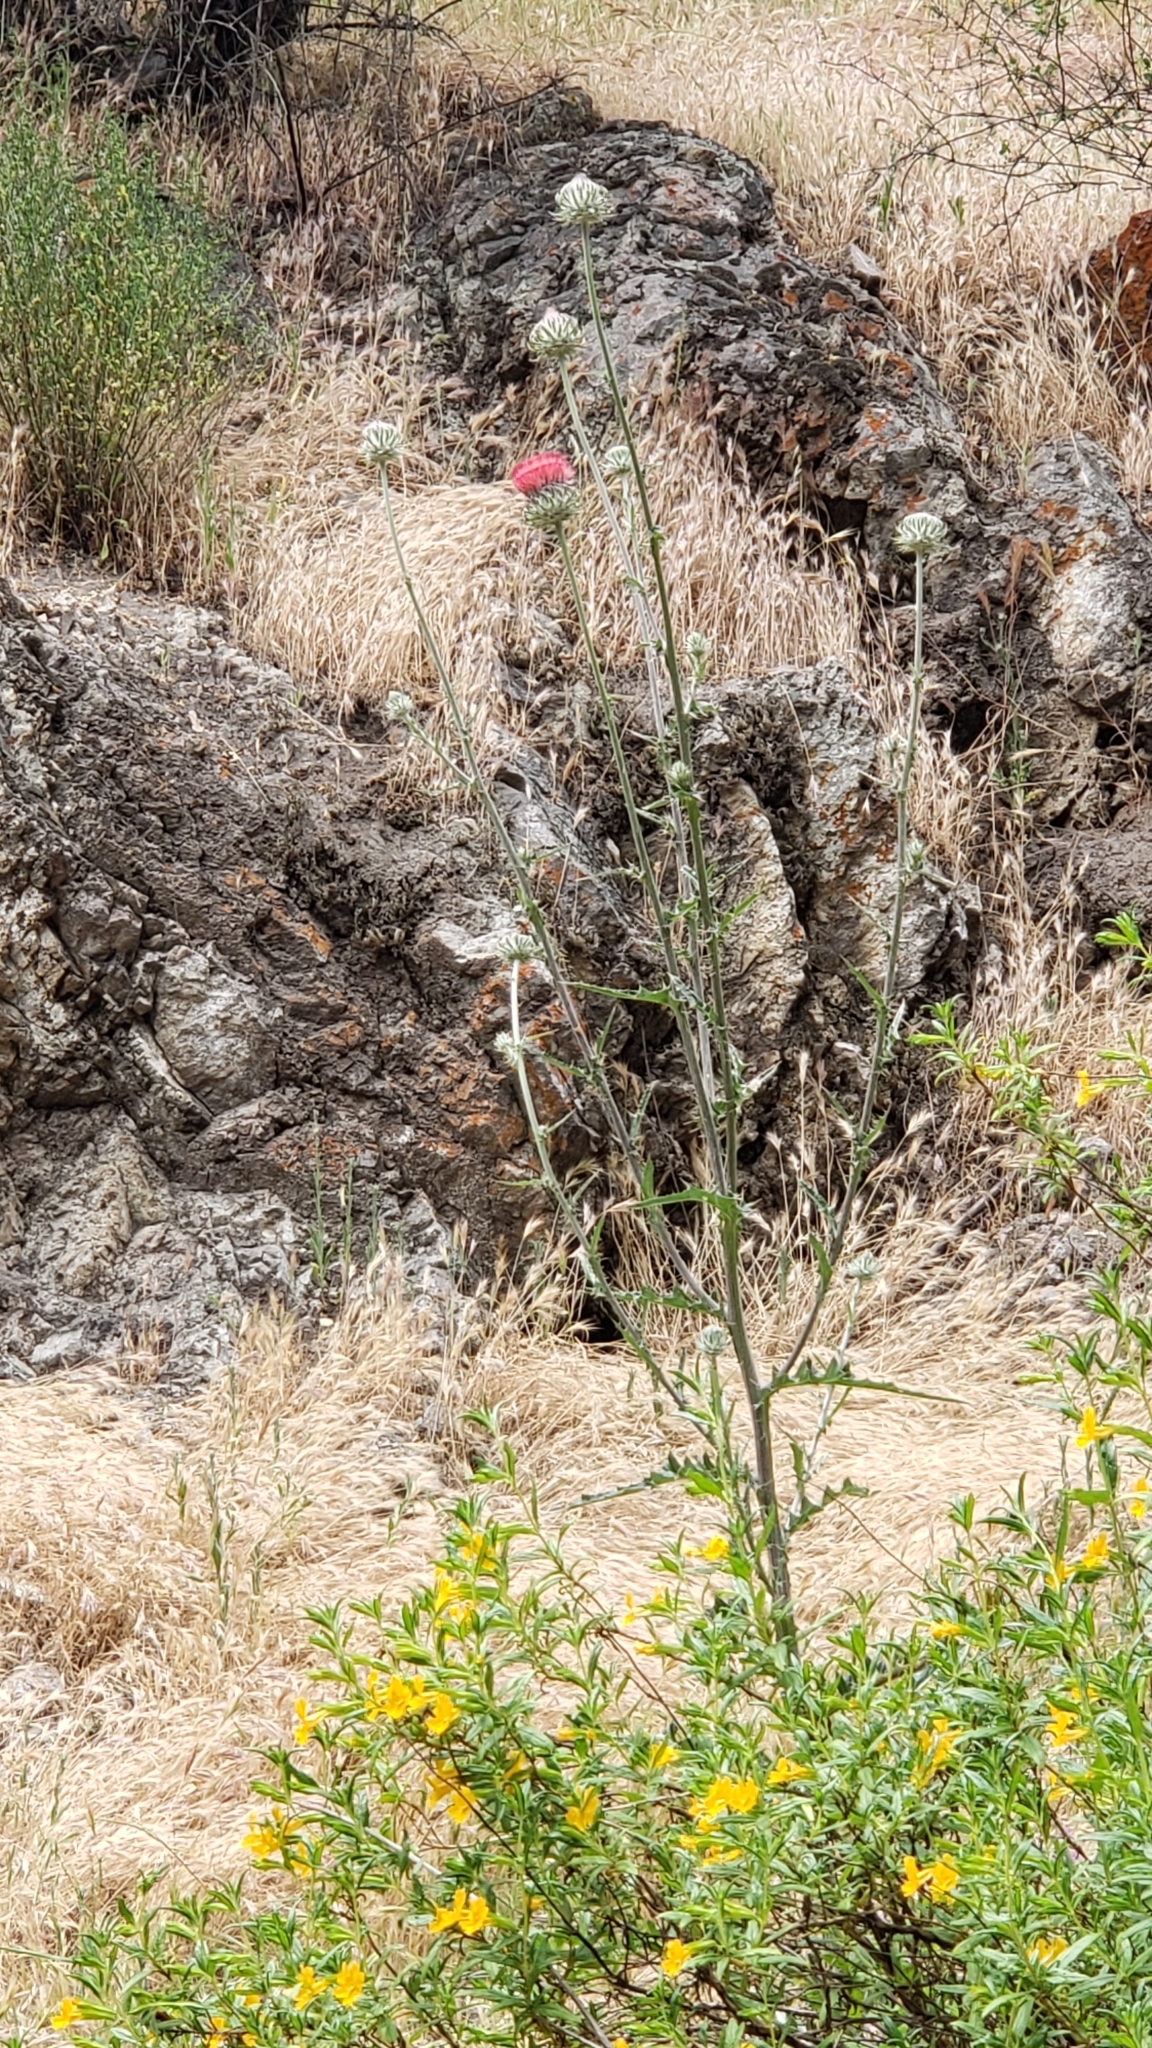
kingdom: Plantae
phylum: Tracheophyta
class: Magnoliopsida
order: Asterales
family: Asteraceae
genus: Cirsium
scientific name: Cirsium occidentale
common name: Western thistle
